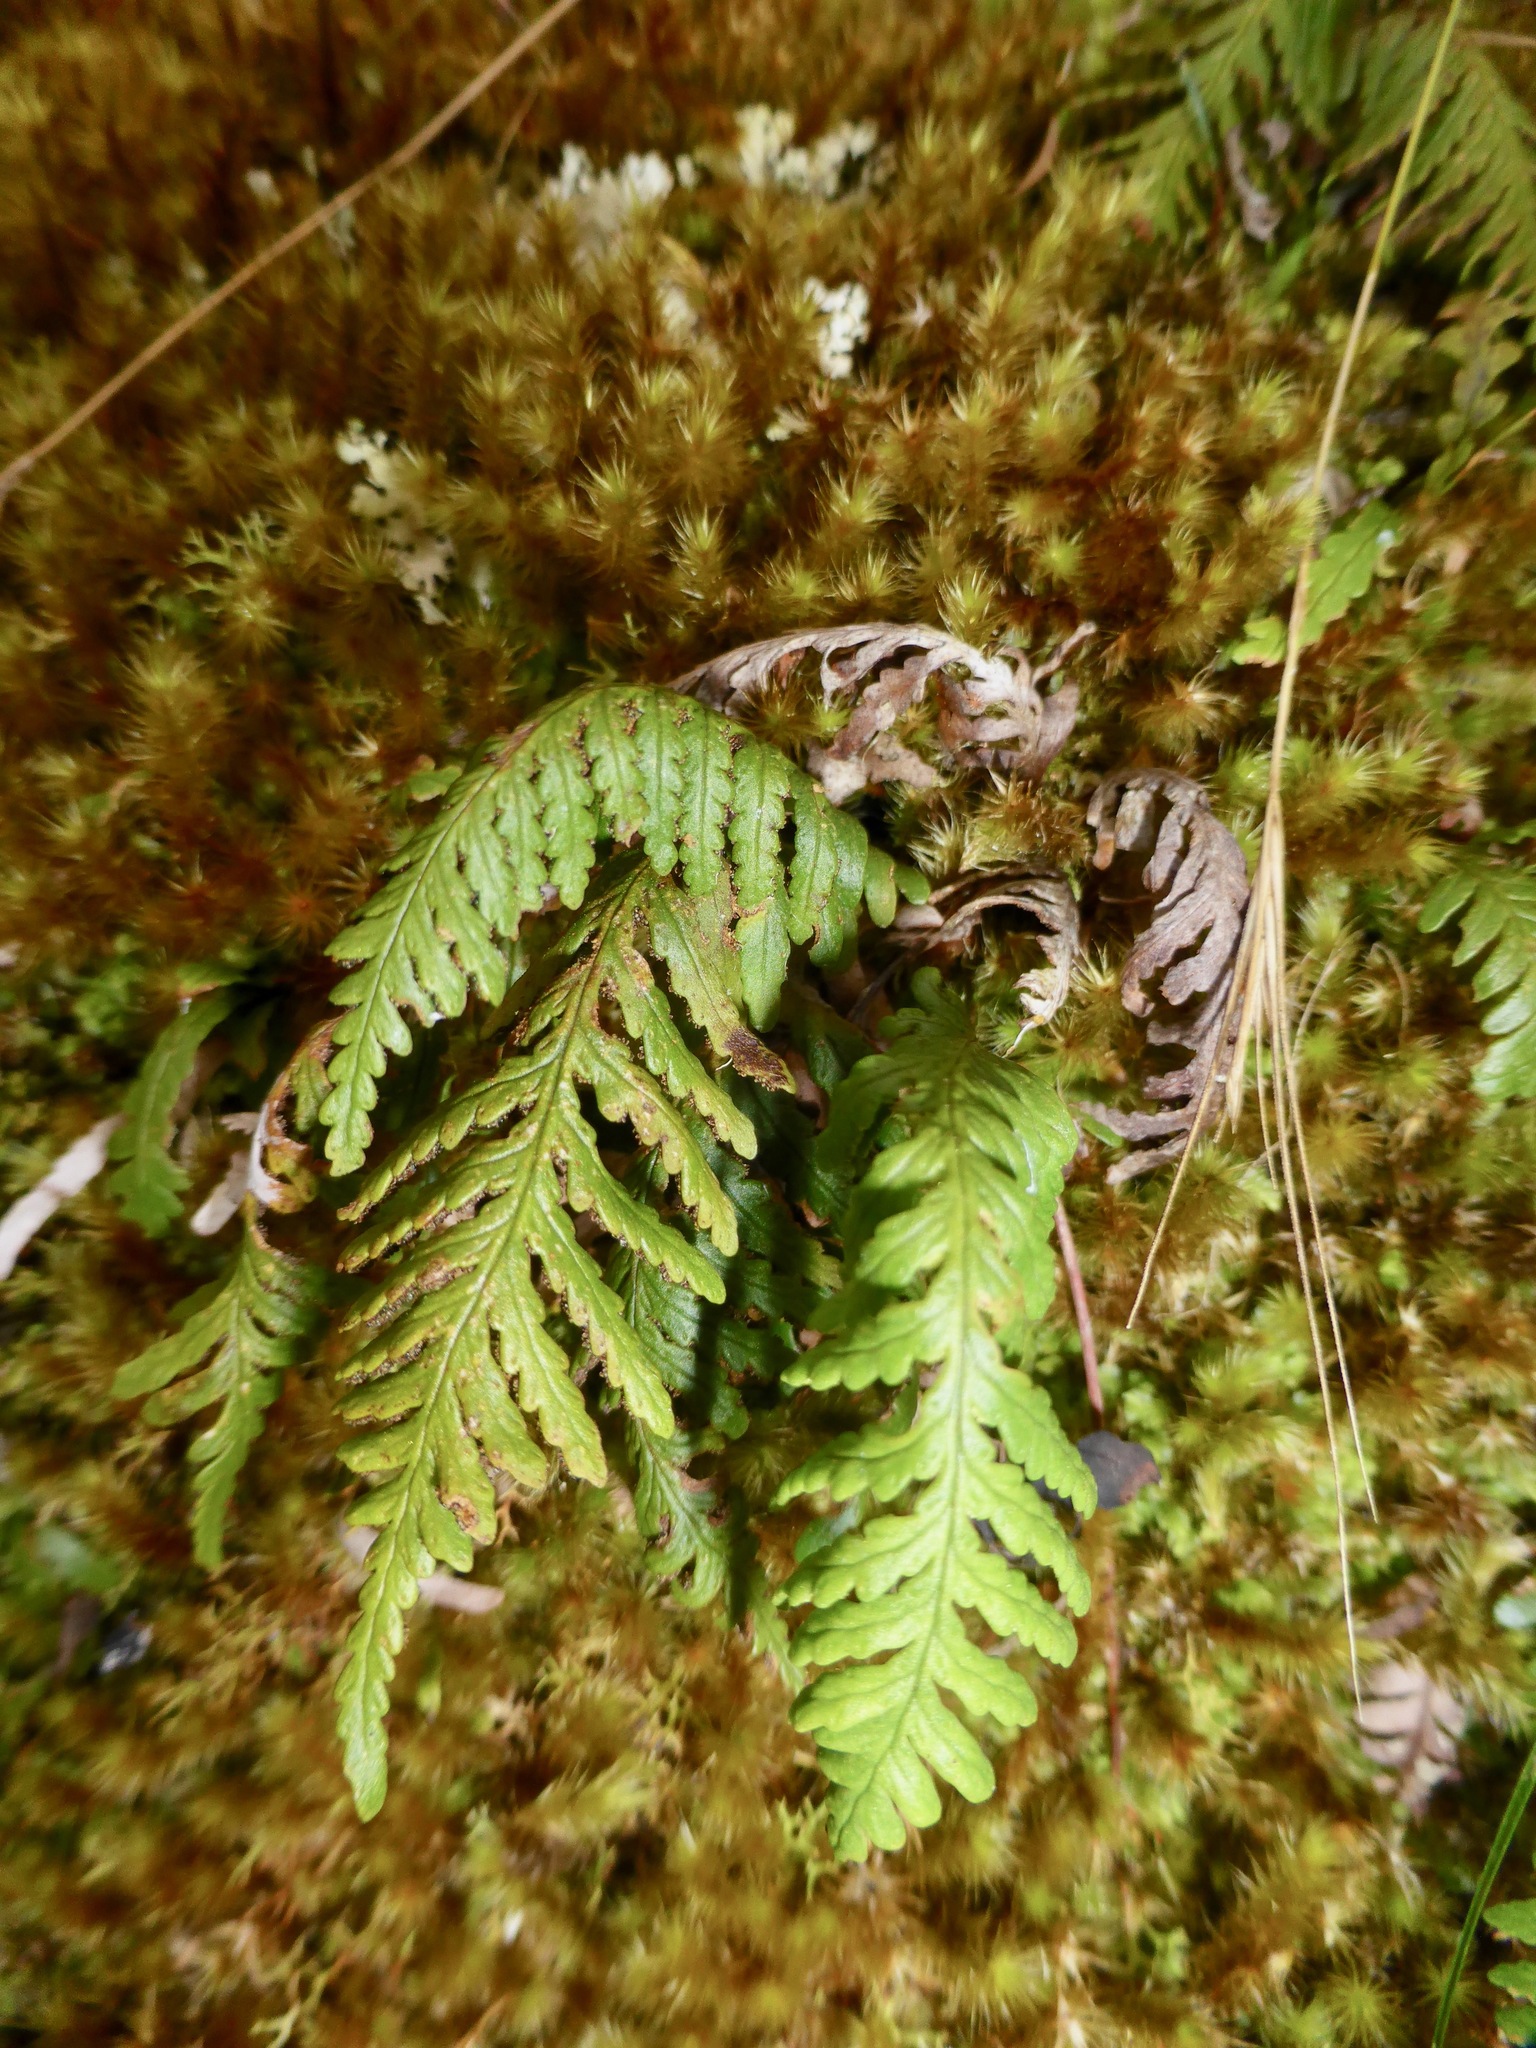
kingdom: Plantae
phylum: Tracheophyta
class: Polypodiopsida
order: Polypodiales
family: Polypodiaceae
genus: Notogrammitis
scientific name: Notogrammitis heterophylla
